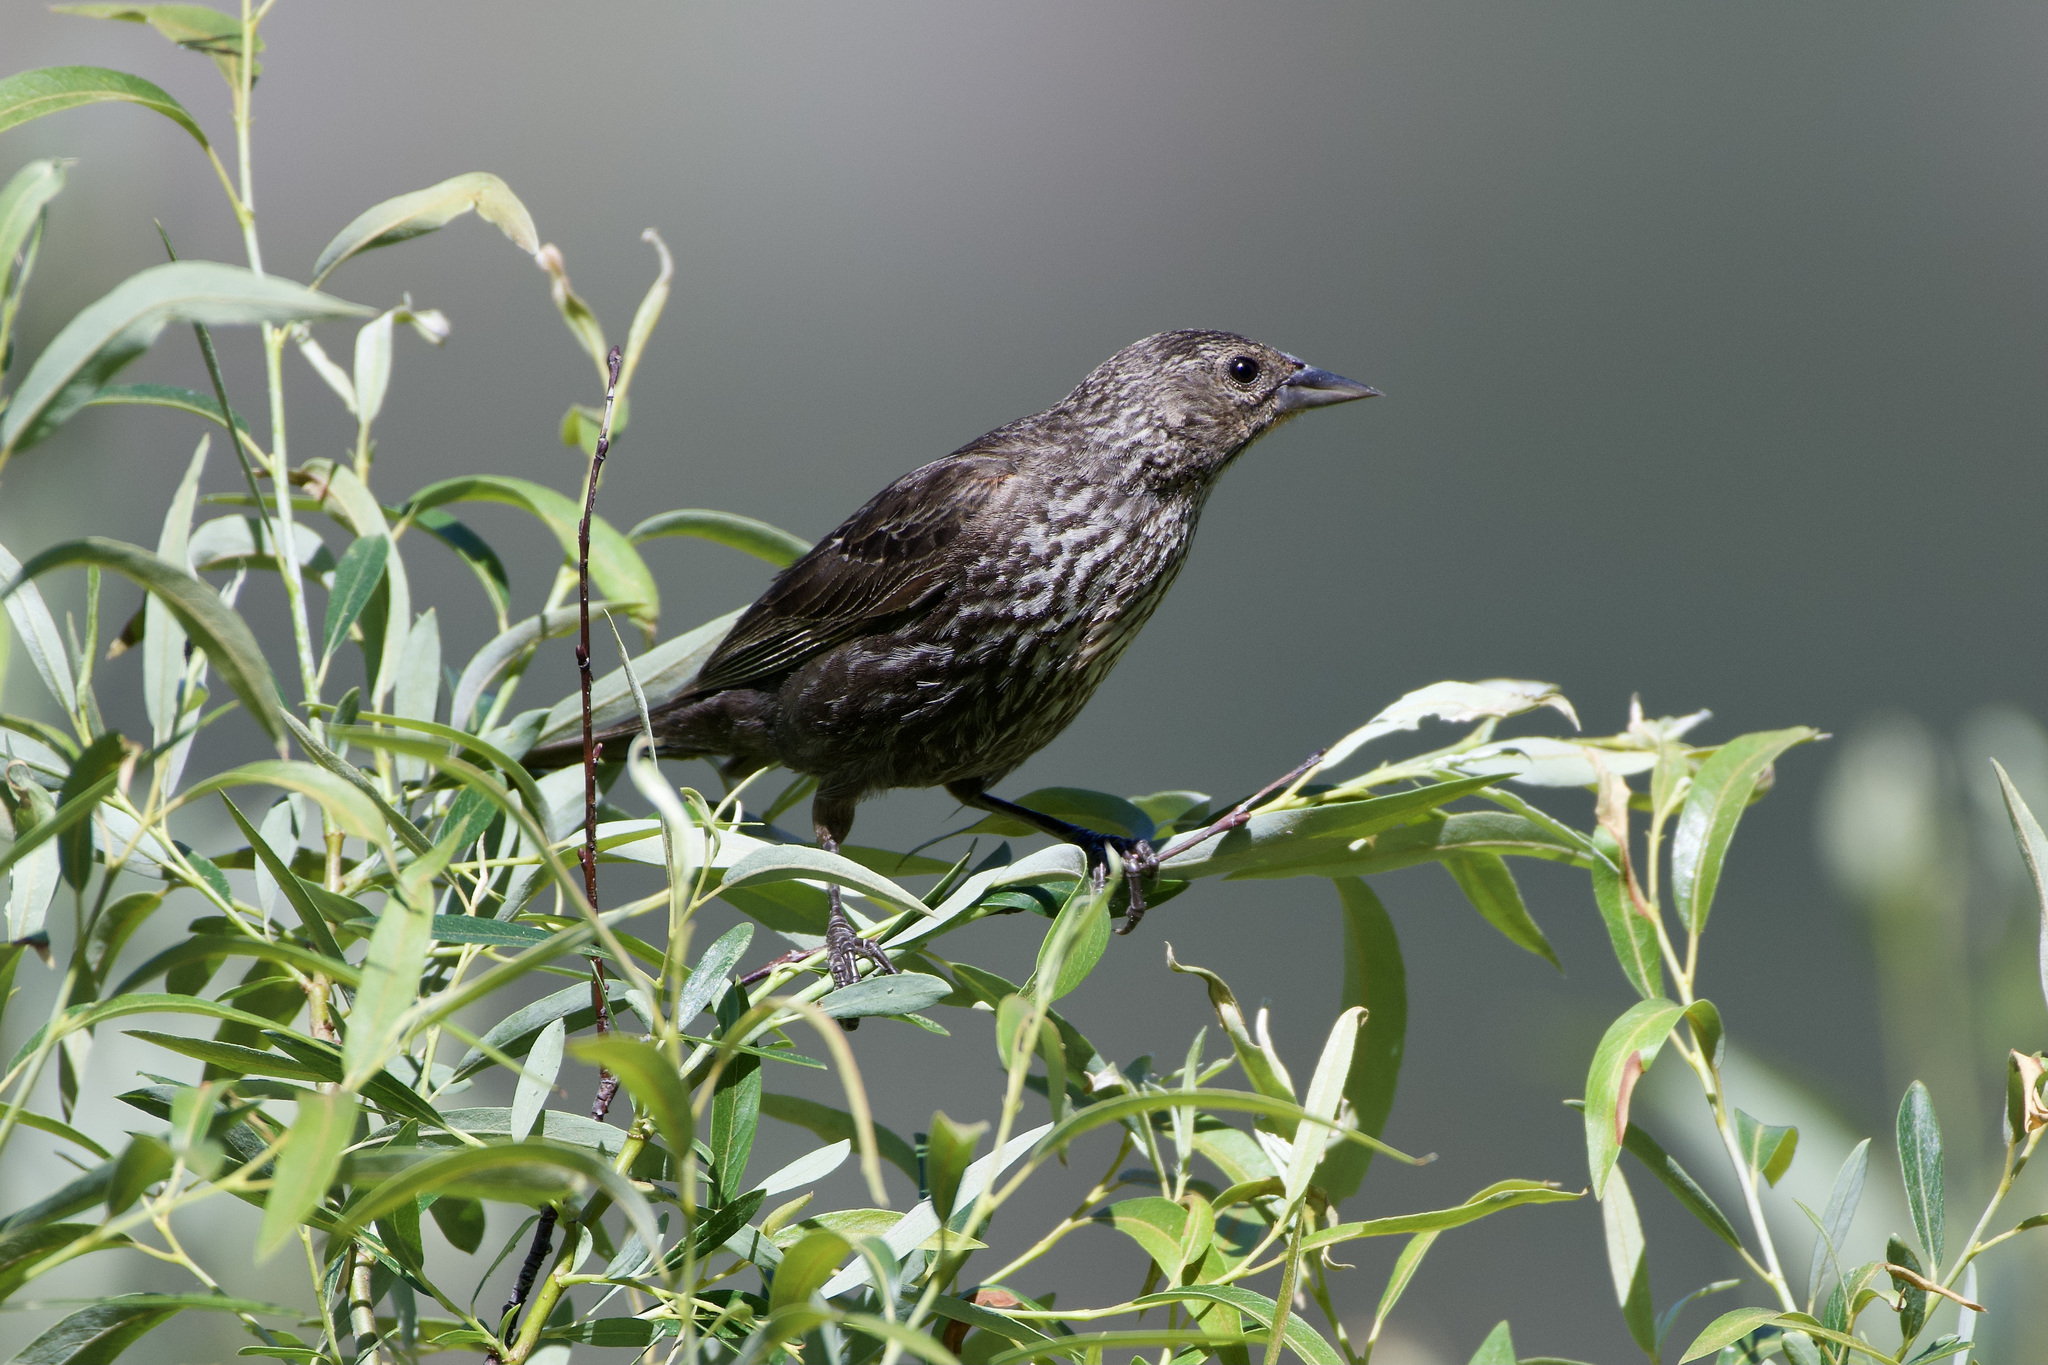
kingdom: Animalia
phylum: Chordata
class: Aves
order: Passeriformes
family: Icteridae
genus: Agelaius
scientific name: Agelaius phoeniceus
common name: Red-winged blackbird
